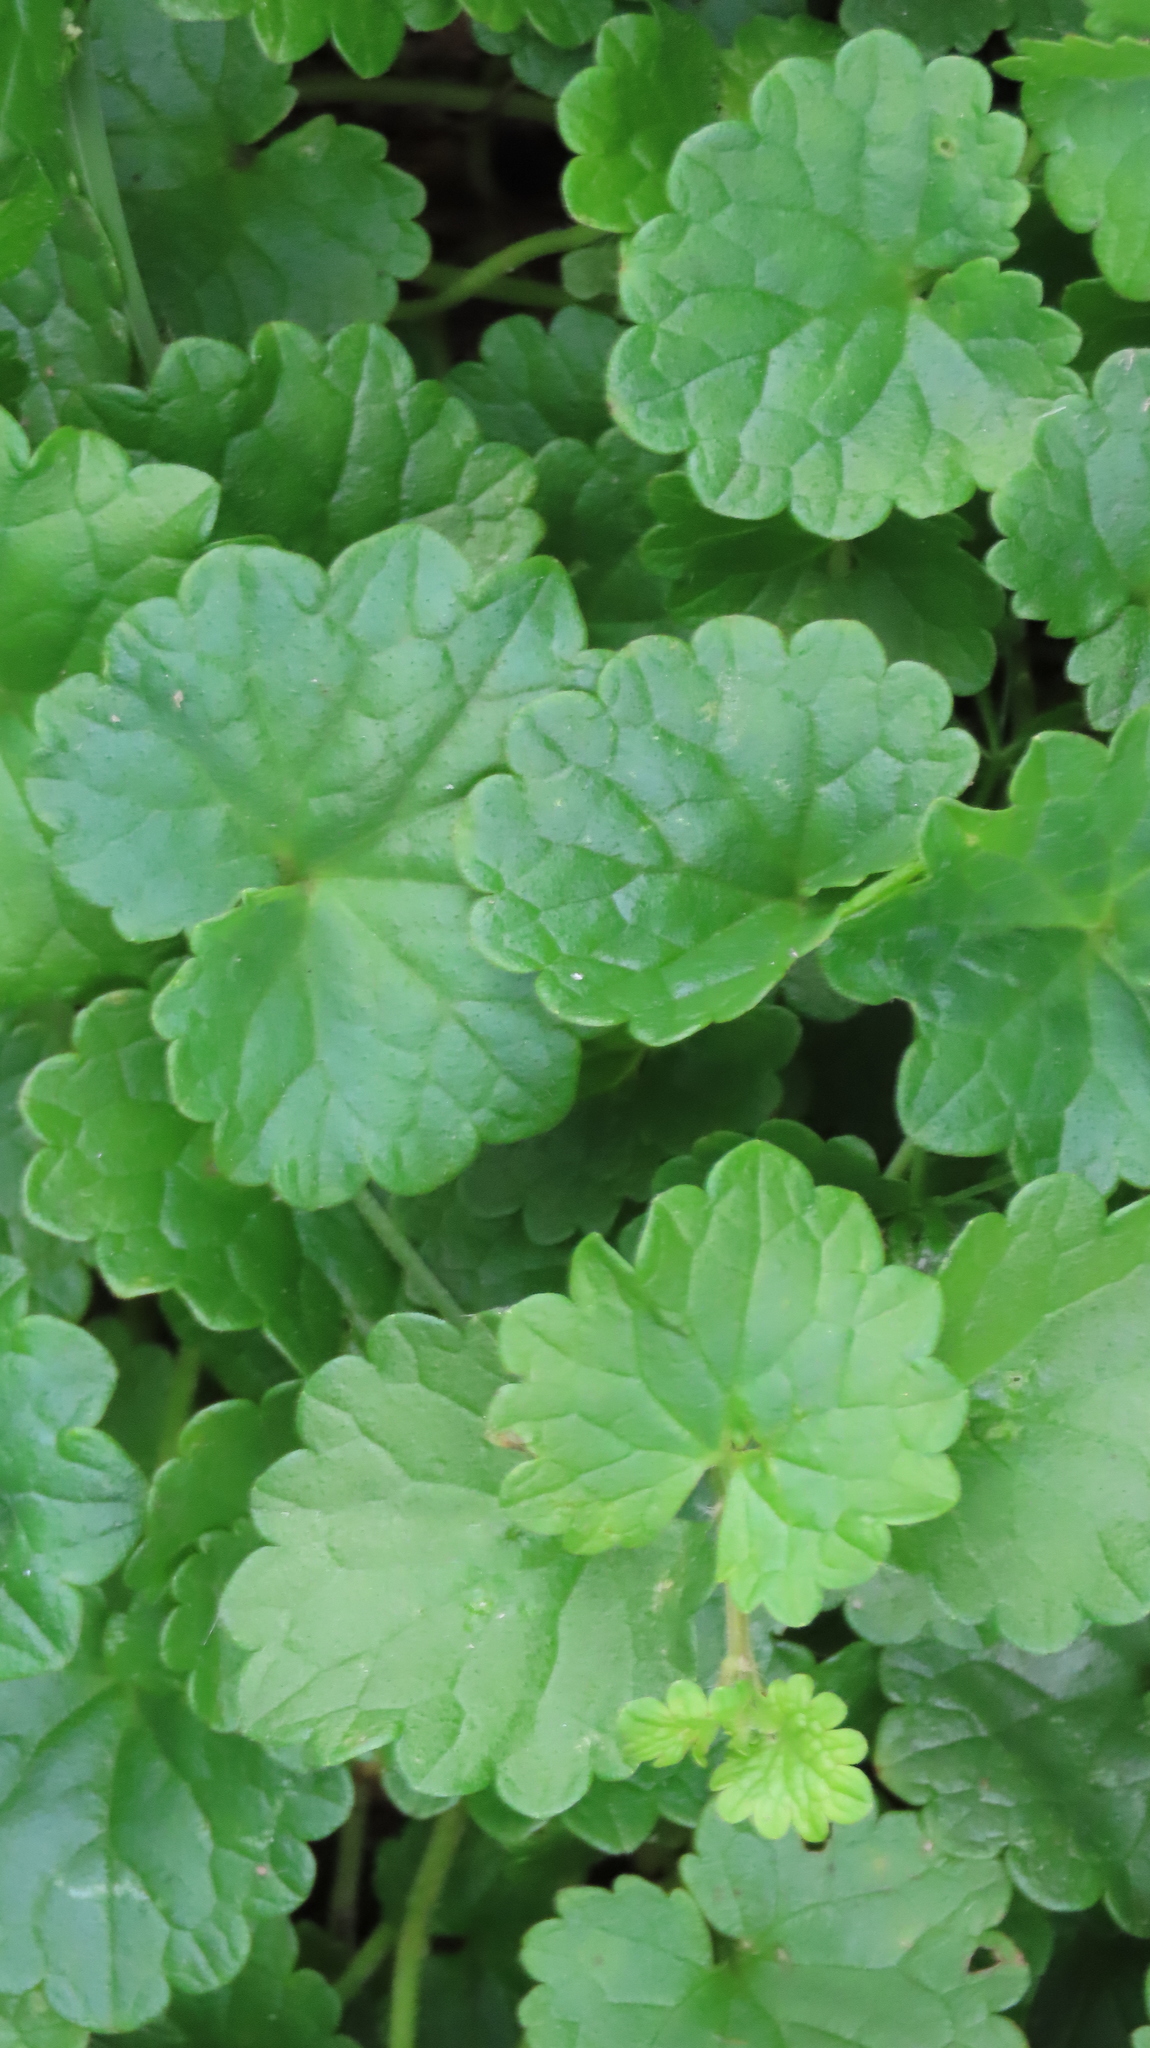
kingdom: Plantae
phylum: Tracheophyta
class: Magnoliopsida
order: Lamiales
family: Lamiaceae
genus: Glechoma
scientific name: Glechoma hederacea
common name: Ground ivy
